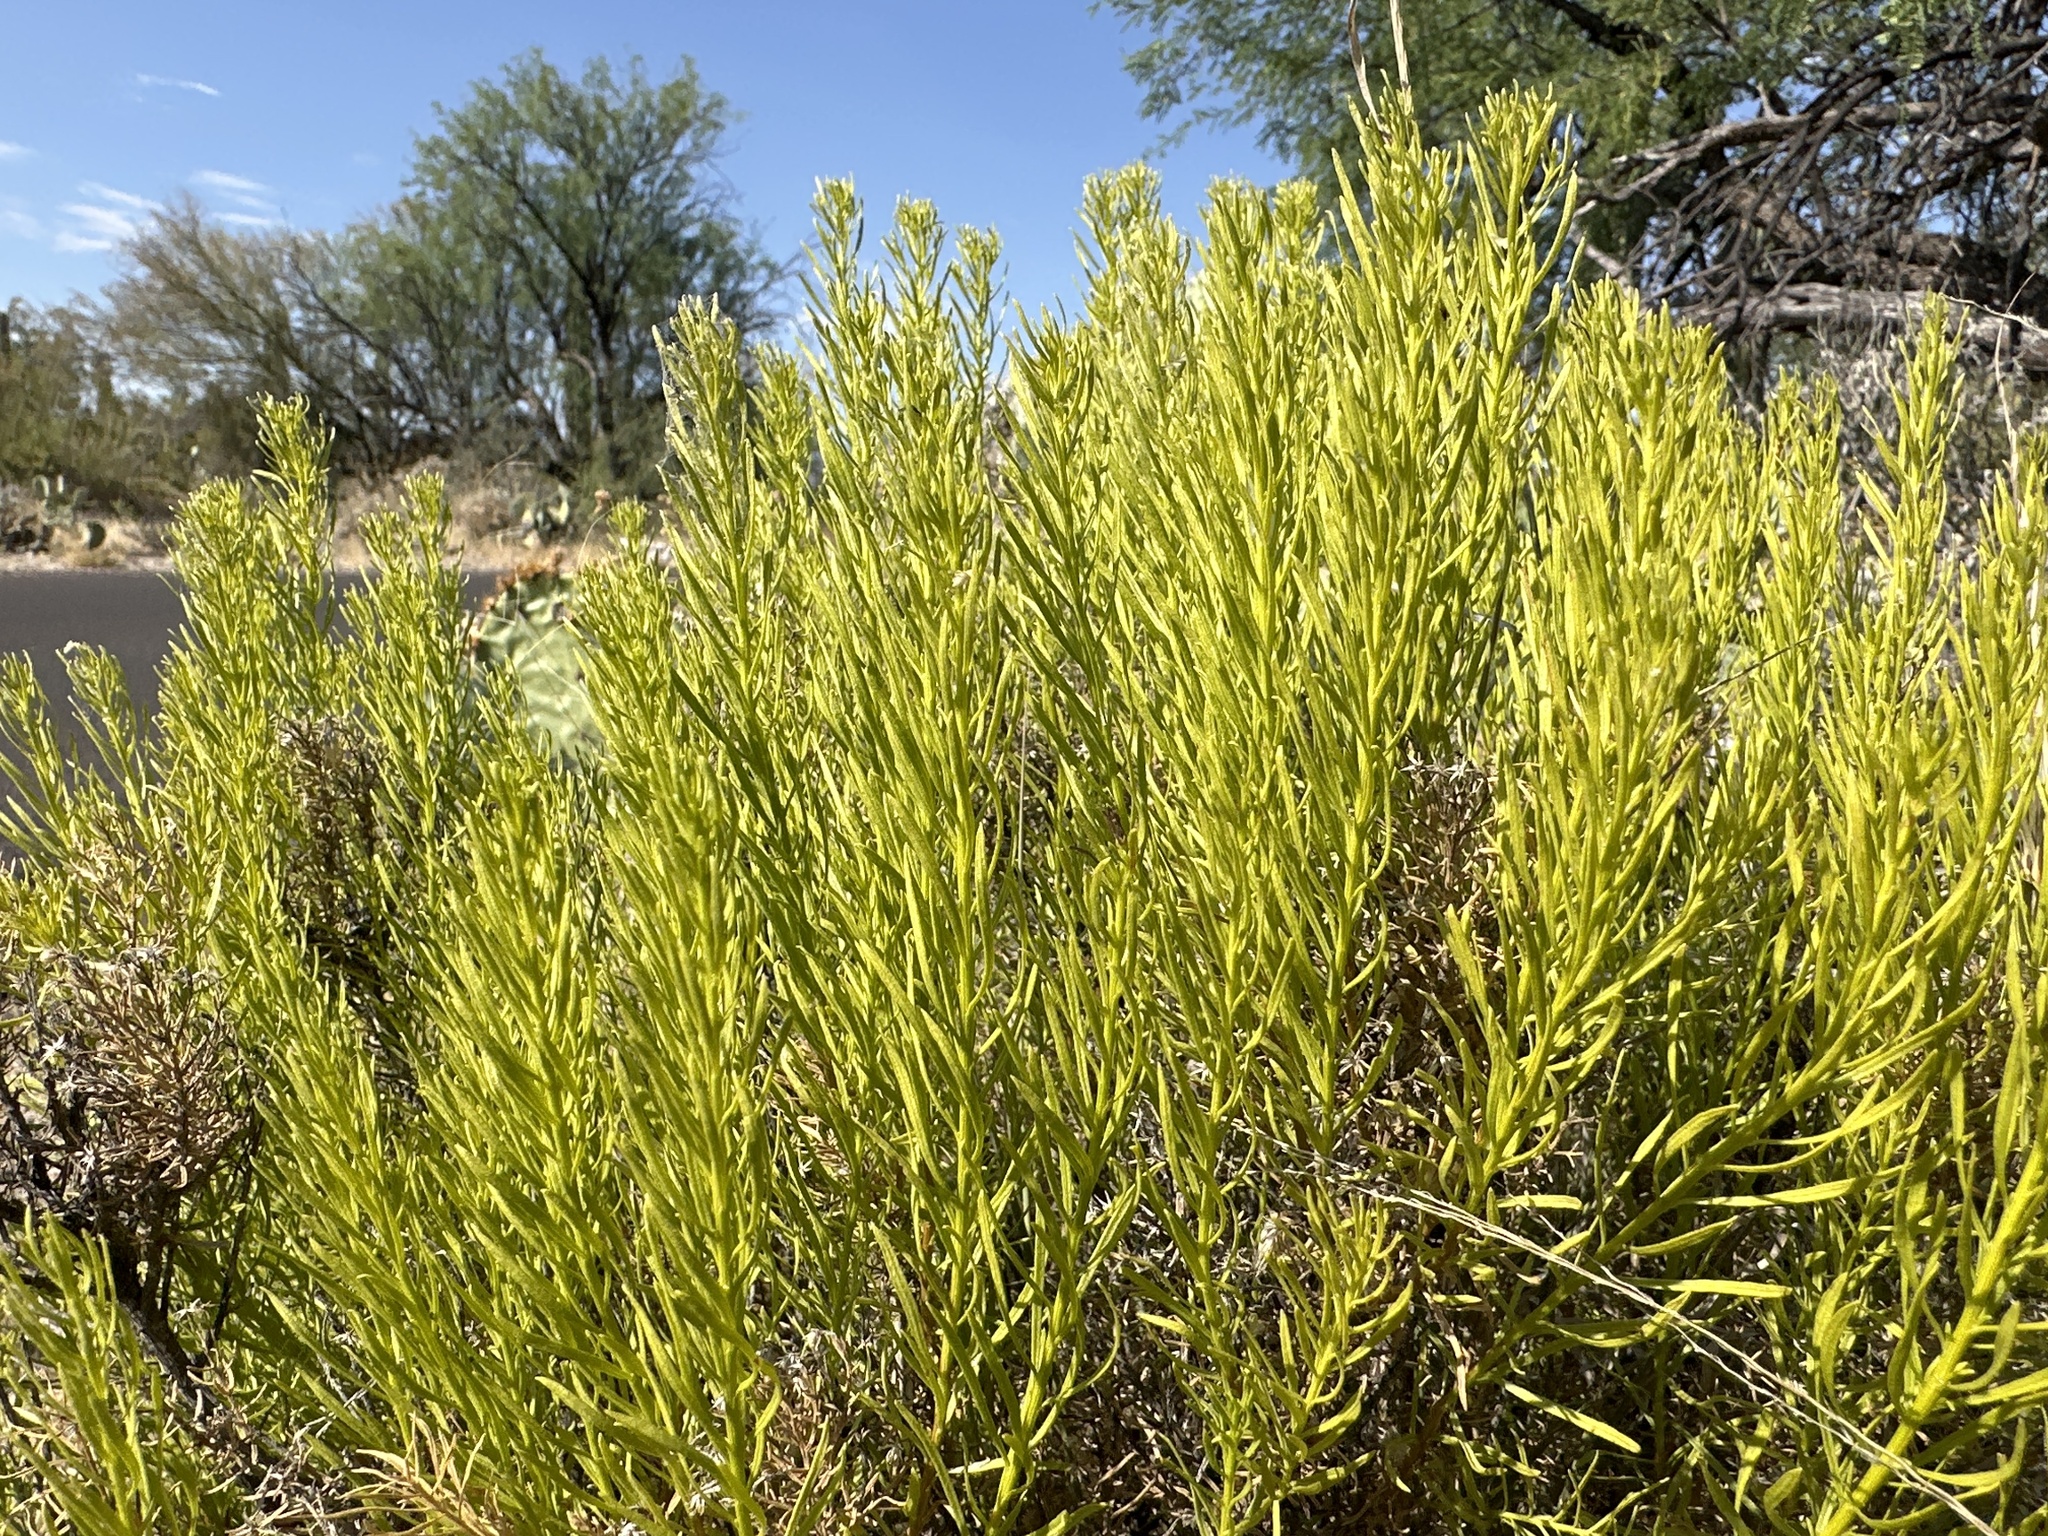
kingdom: Plantae
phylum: Tracheophyta
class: Magnoliopsida
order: Asterales
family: Asteraceae
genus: Ericameria
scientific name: Ericameria laricifolia
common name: Turpentine-bush
